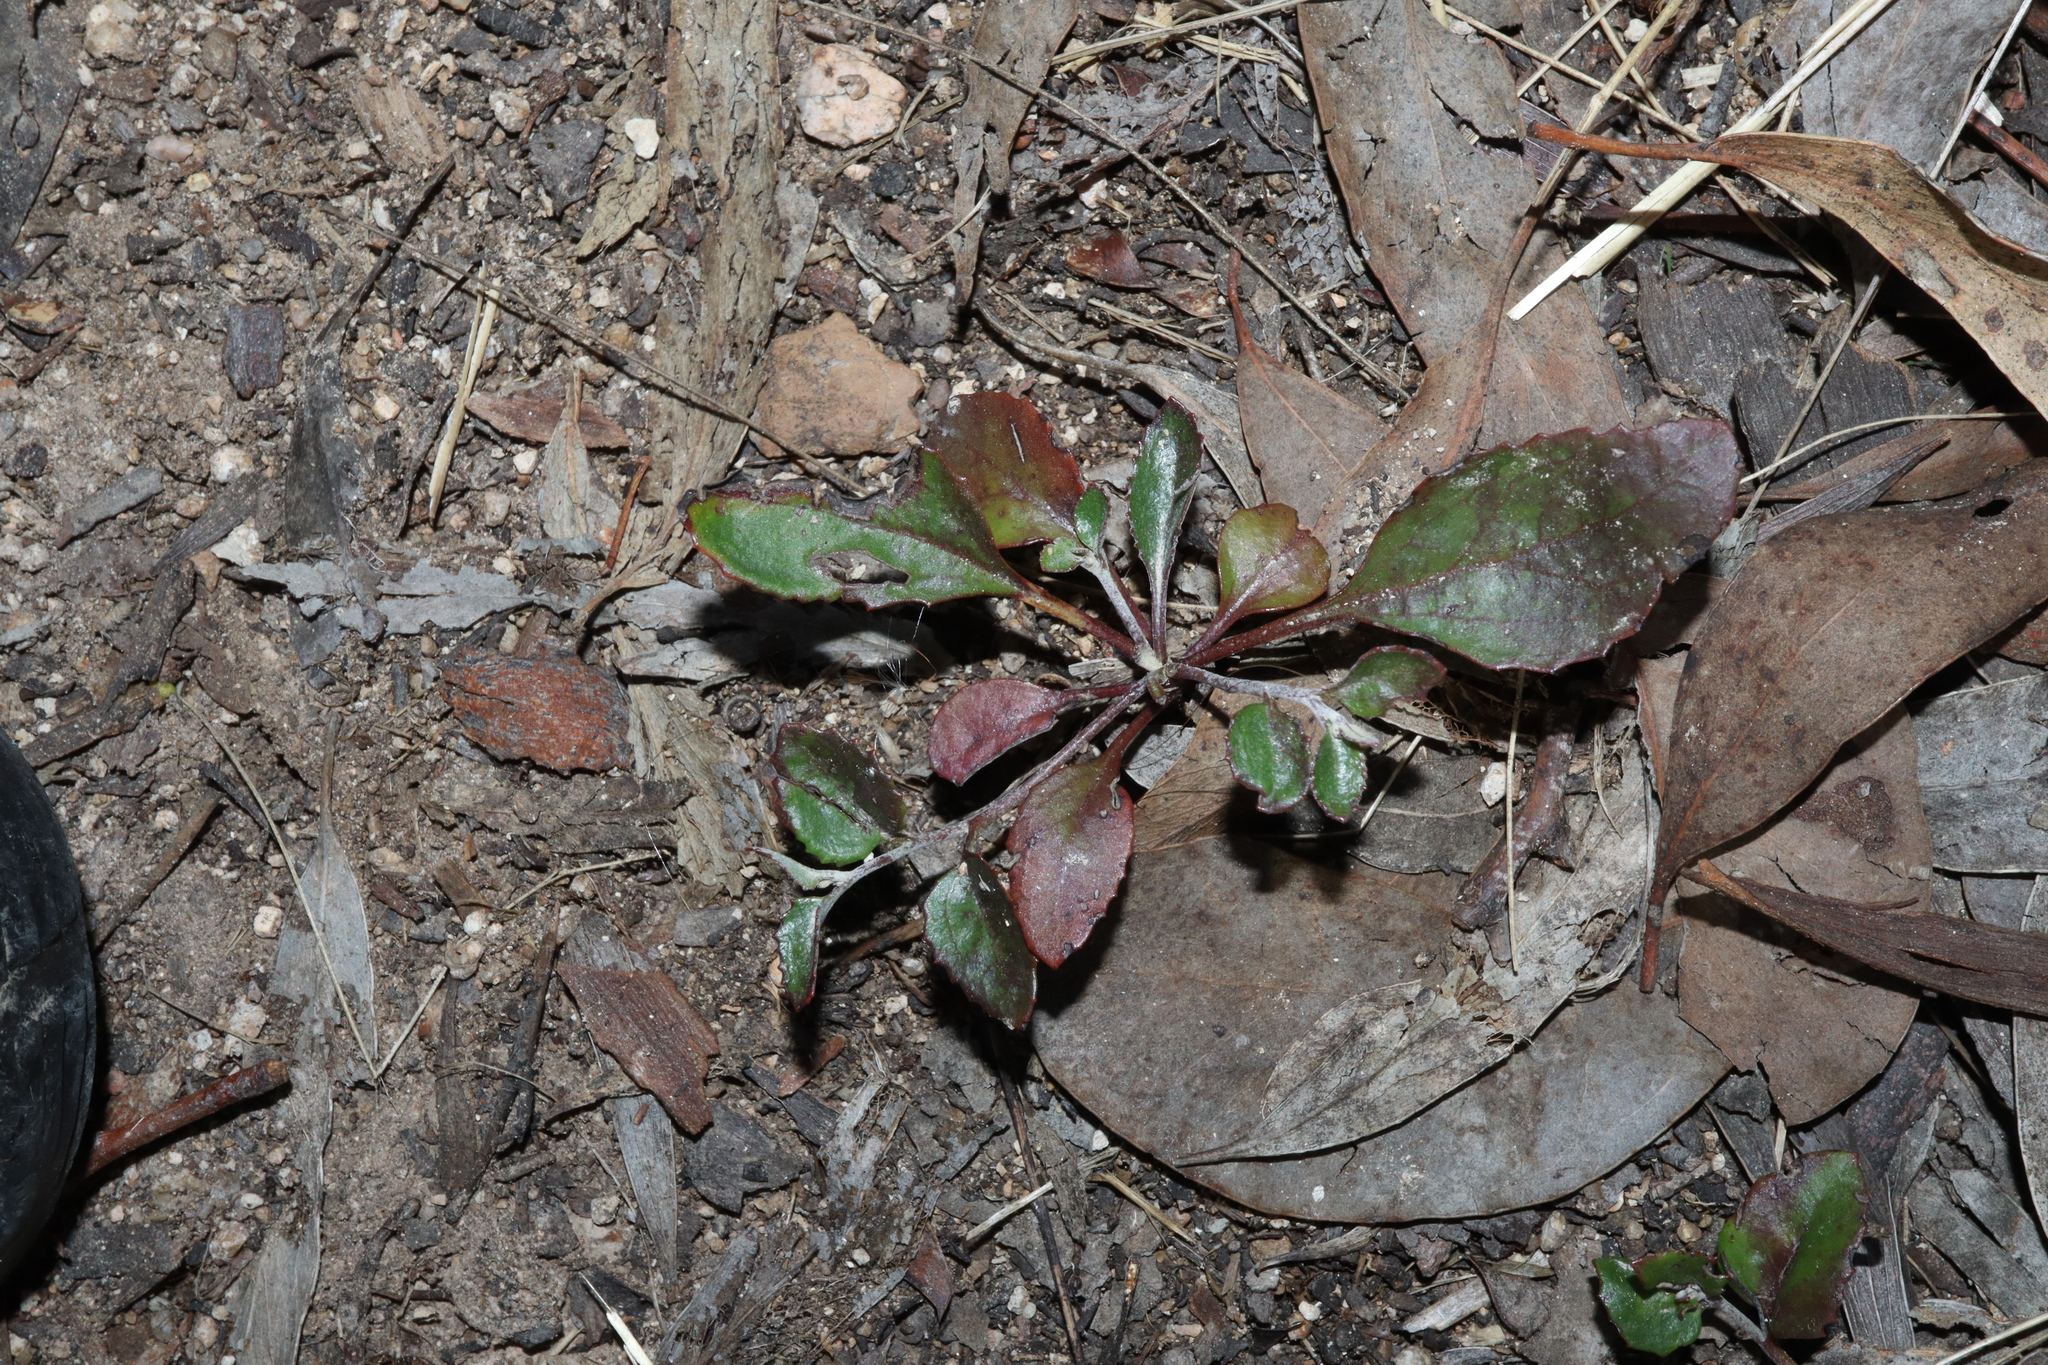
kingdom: Plantae
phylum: Tracheophyta
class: Magnoliopsida
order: Asterales
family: Goodeniaceae
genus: Goodenia
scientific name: Goodenia hederacea
